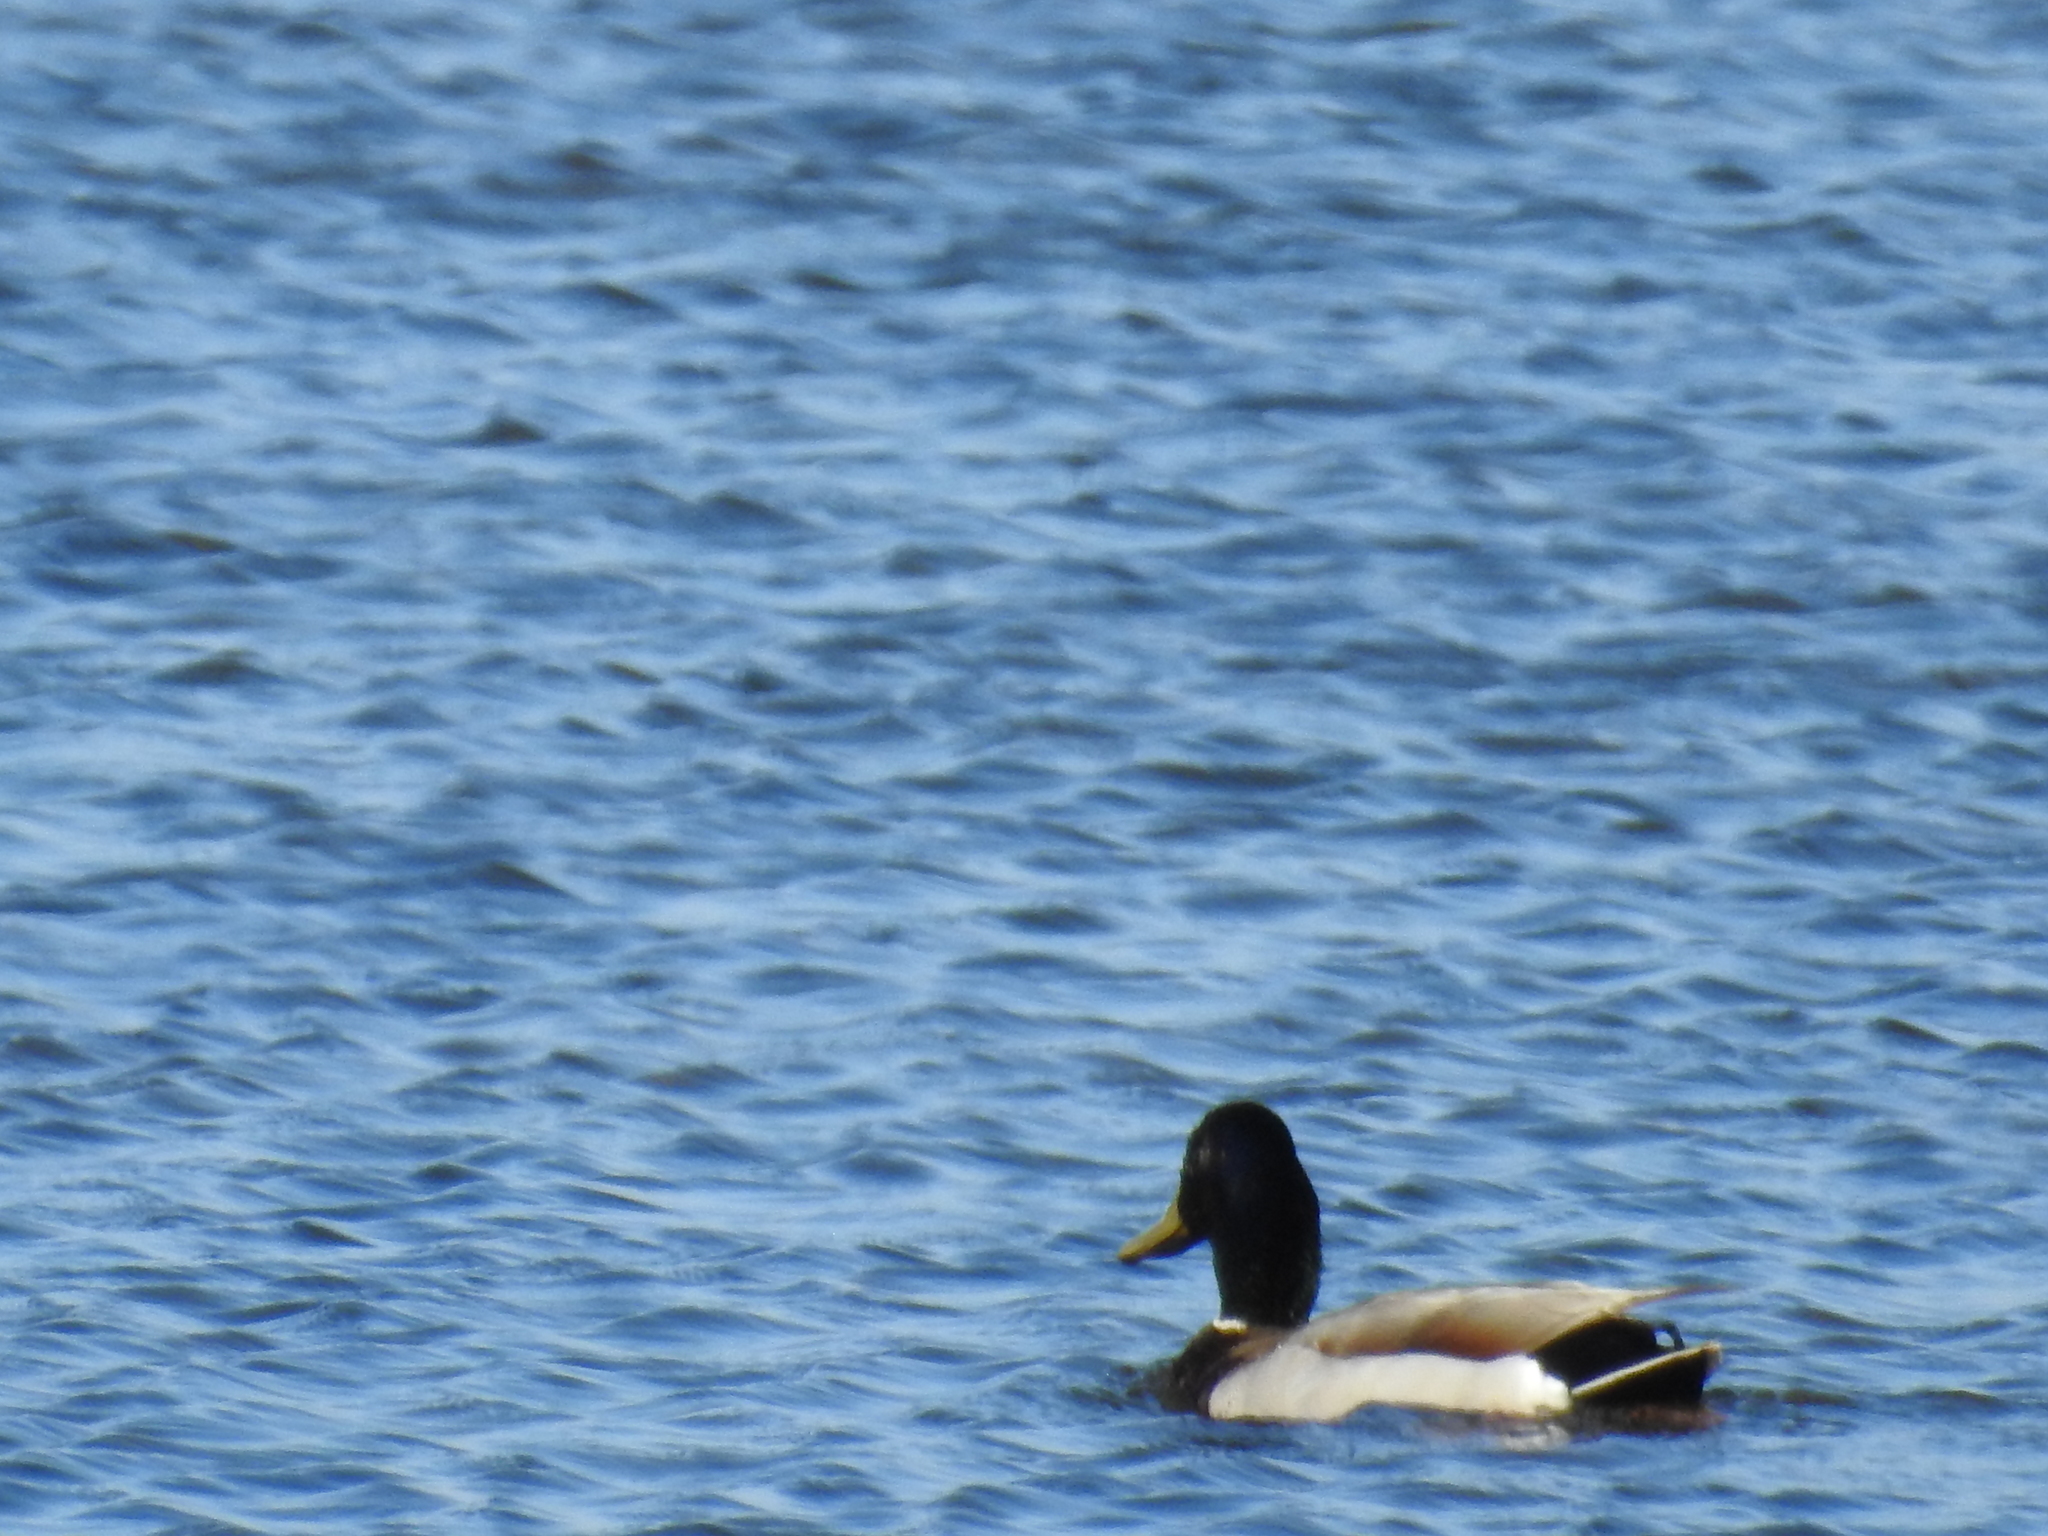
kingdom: Animalia
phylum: Chordata
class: Aves
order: Anseriformes
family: Anatidae
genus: Anas
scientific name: Anas platyrhynchos
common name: Mallard
